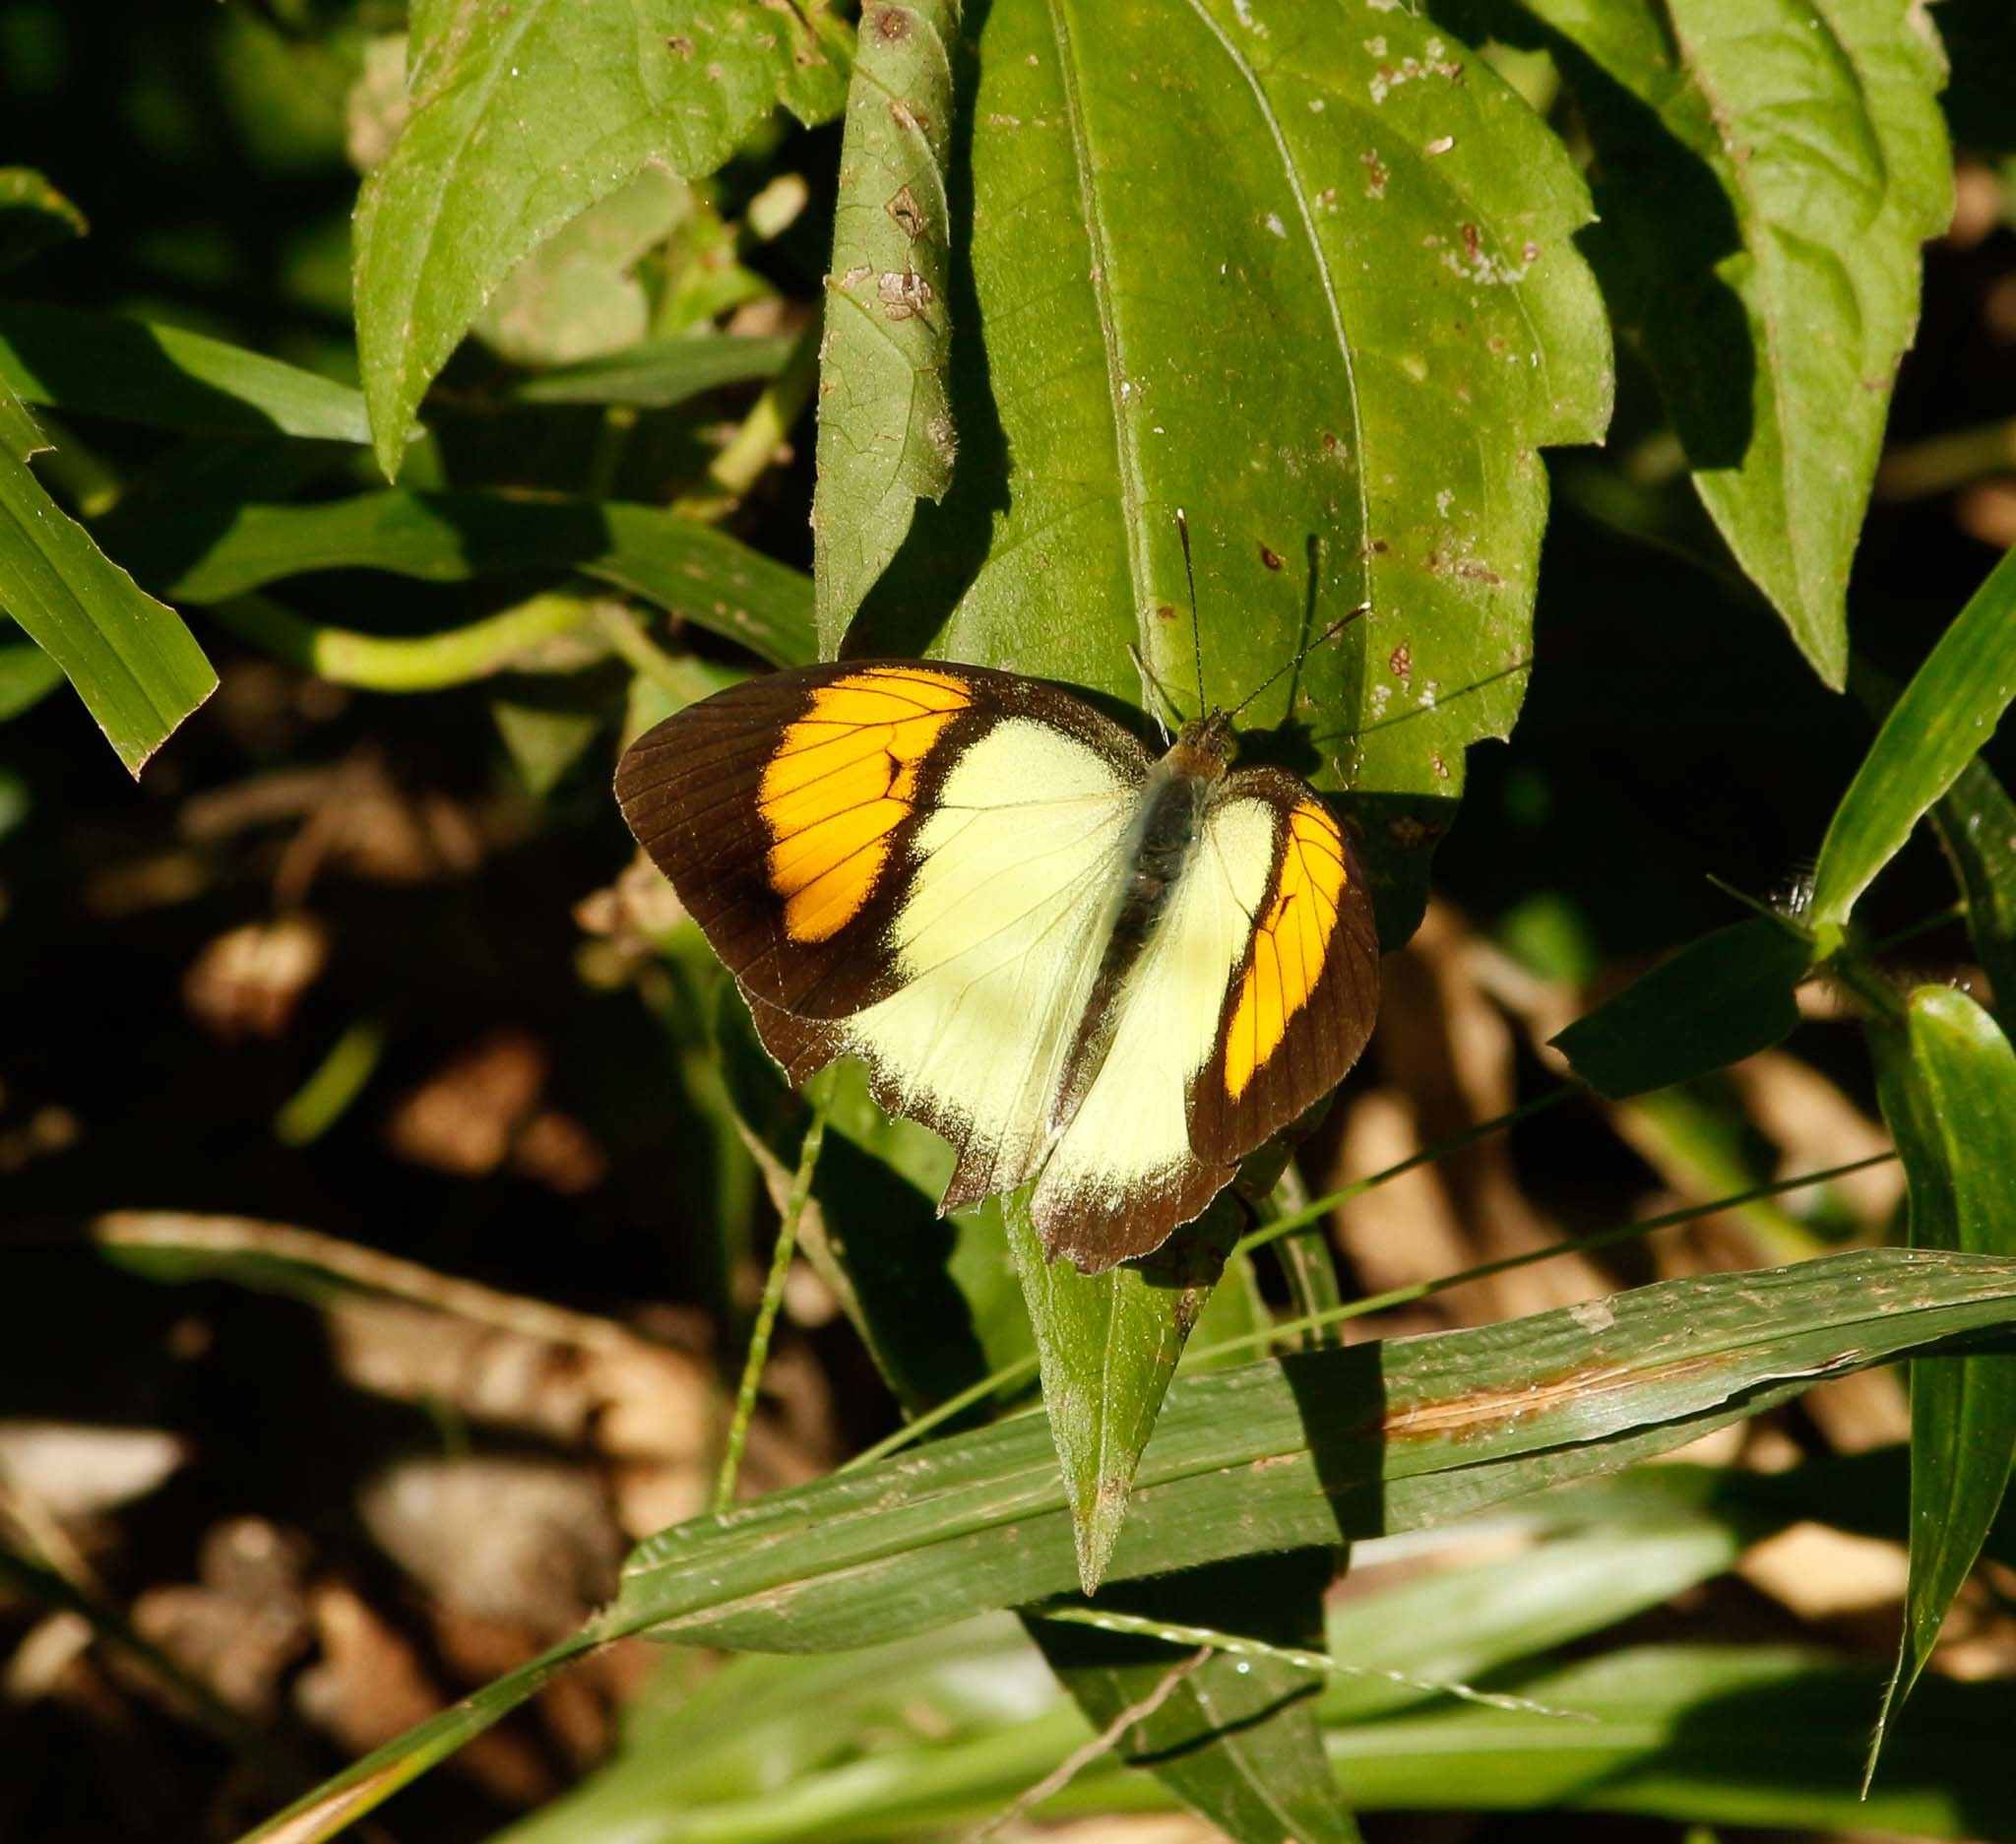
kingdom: Animalia
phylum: Arthropoda
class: Insecta
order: Lepidoptera
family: Pieridae
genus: Ixias
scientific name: Ixias pyrene
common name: Yellow orange tip
